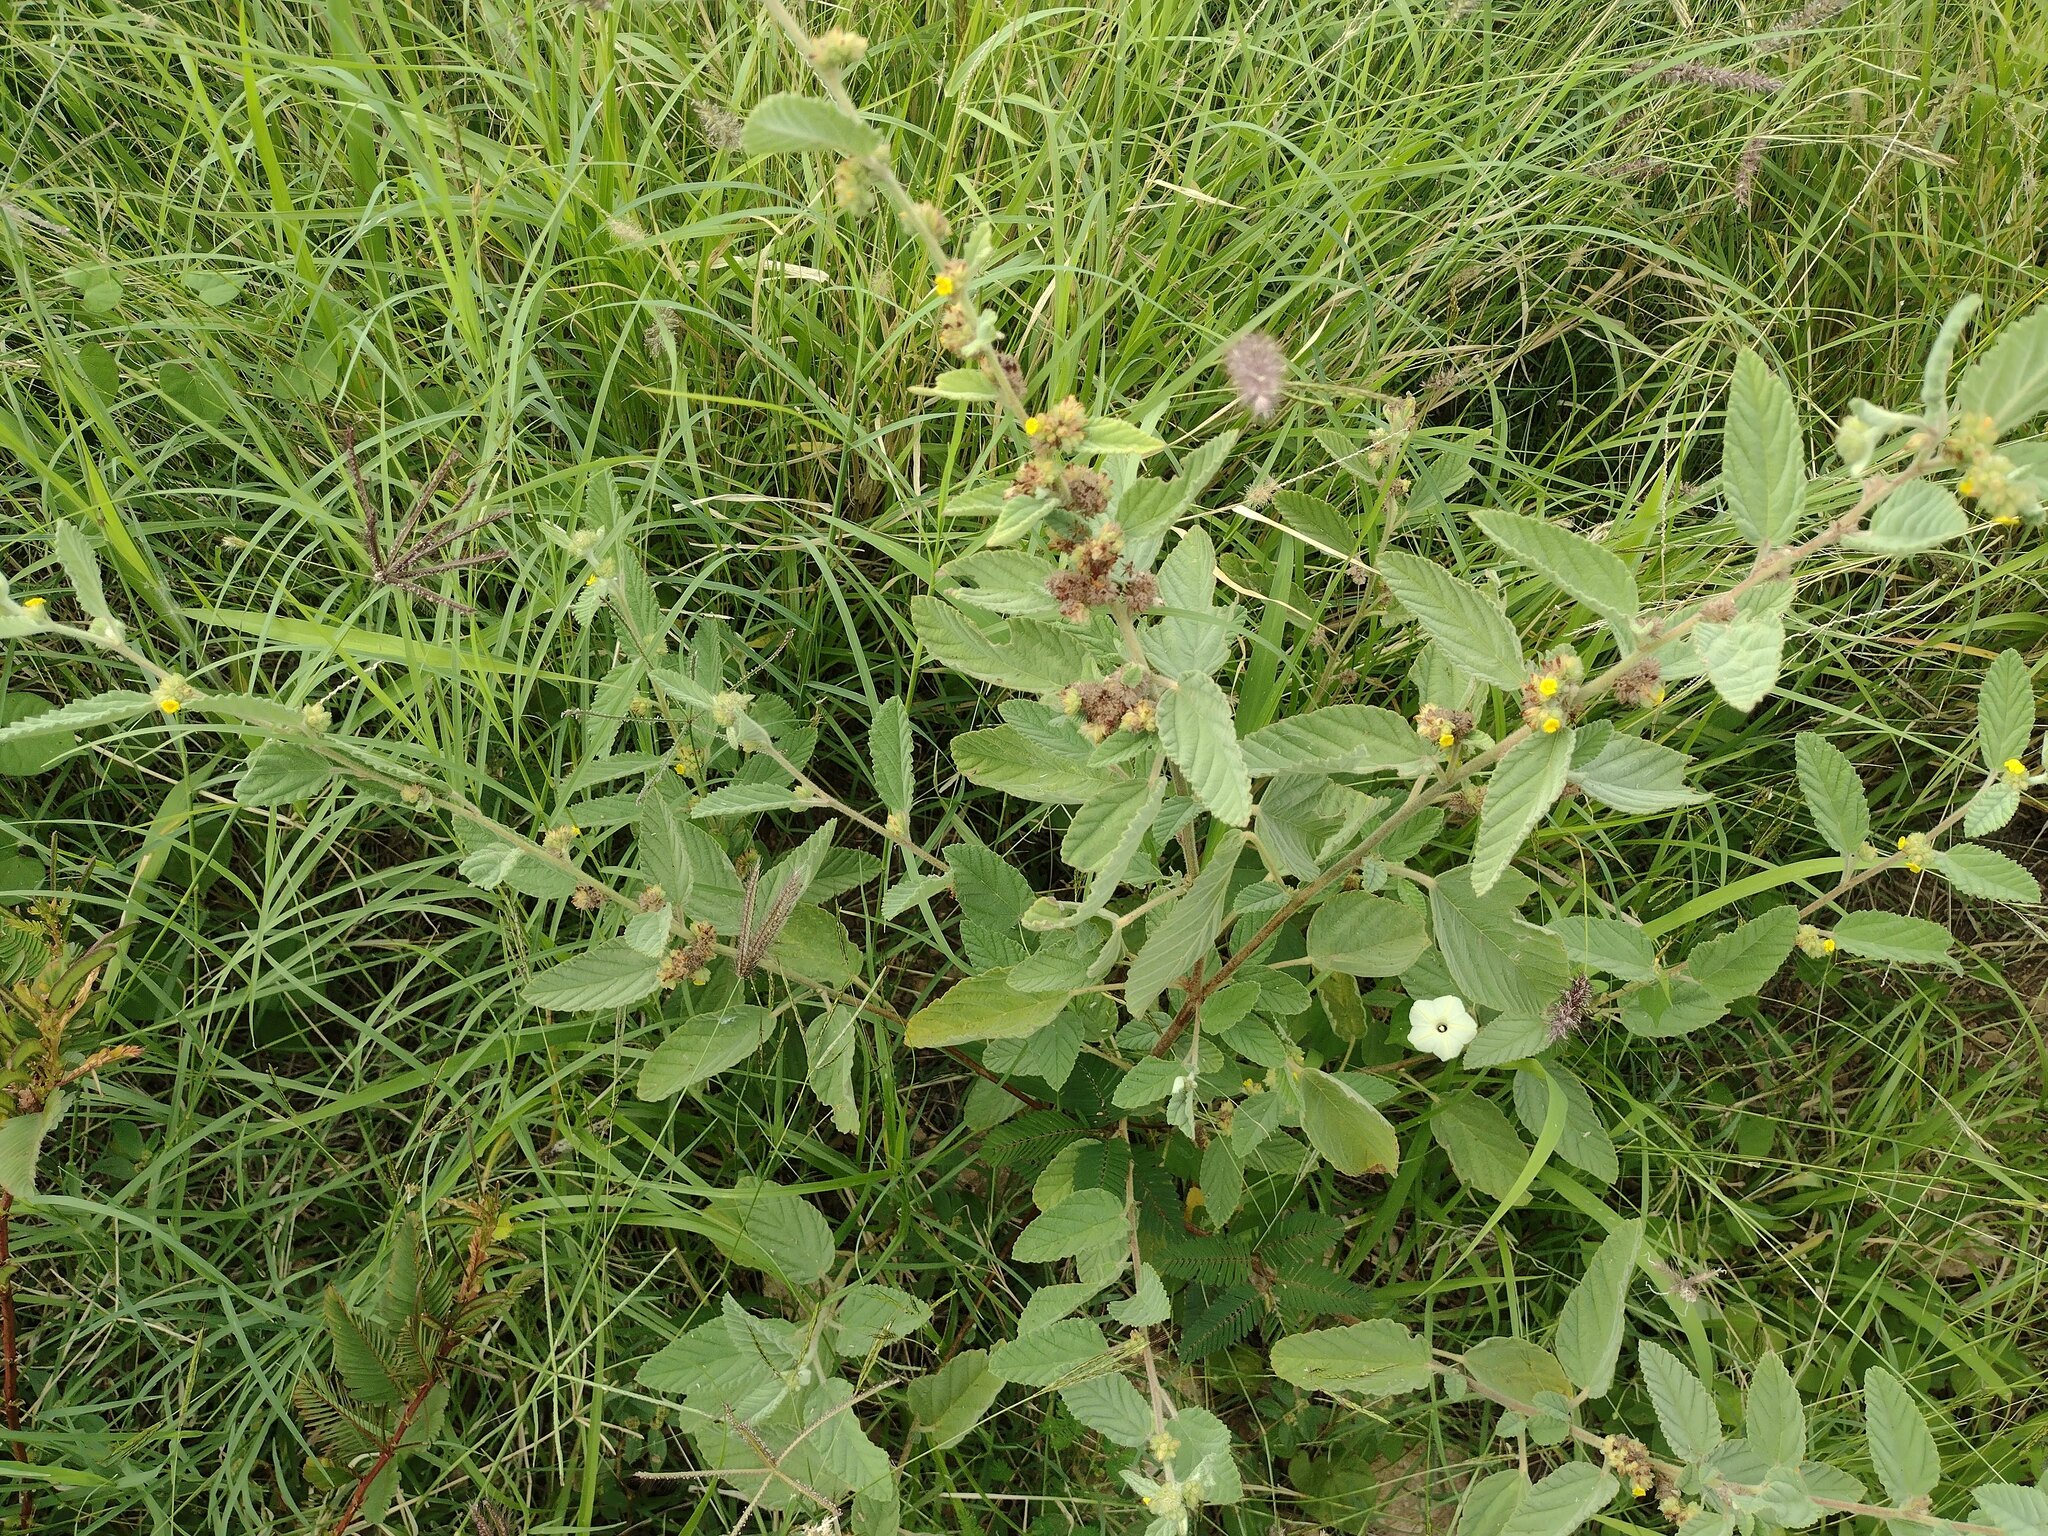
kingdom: Plantae
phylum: Tracheophyta
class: Magnoliopsida
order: Malvales
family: Malvaceae
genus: Waltheria
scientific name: Waltheria indica
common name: Leather-coat
